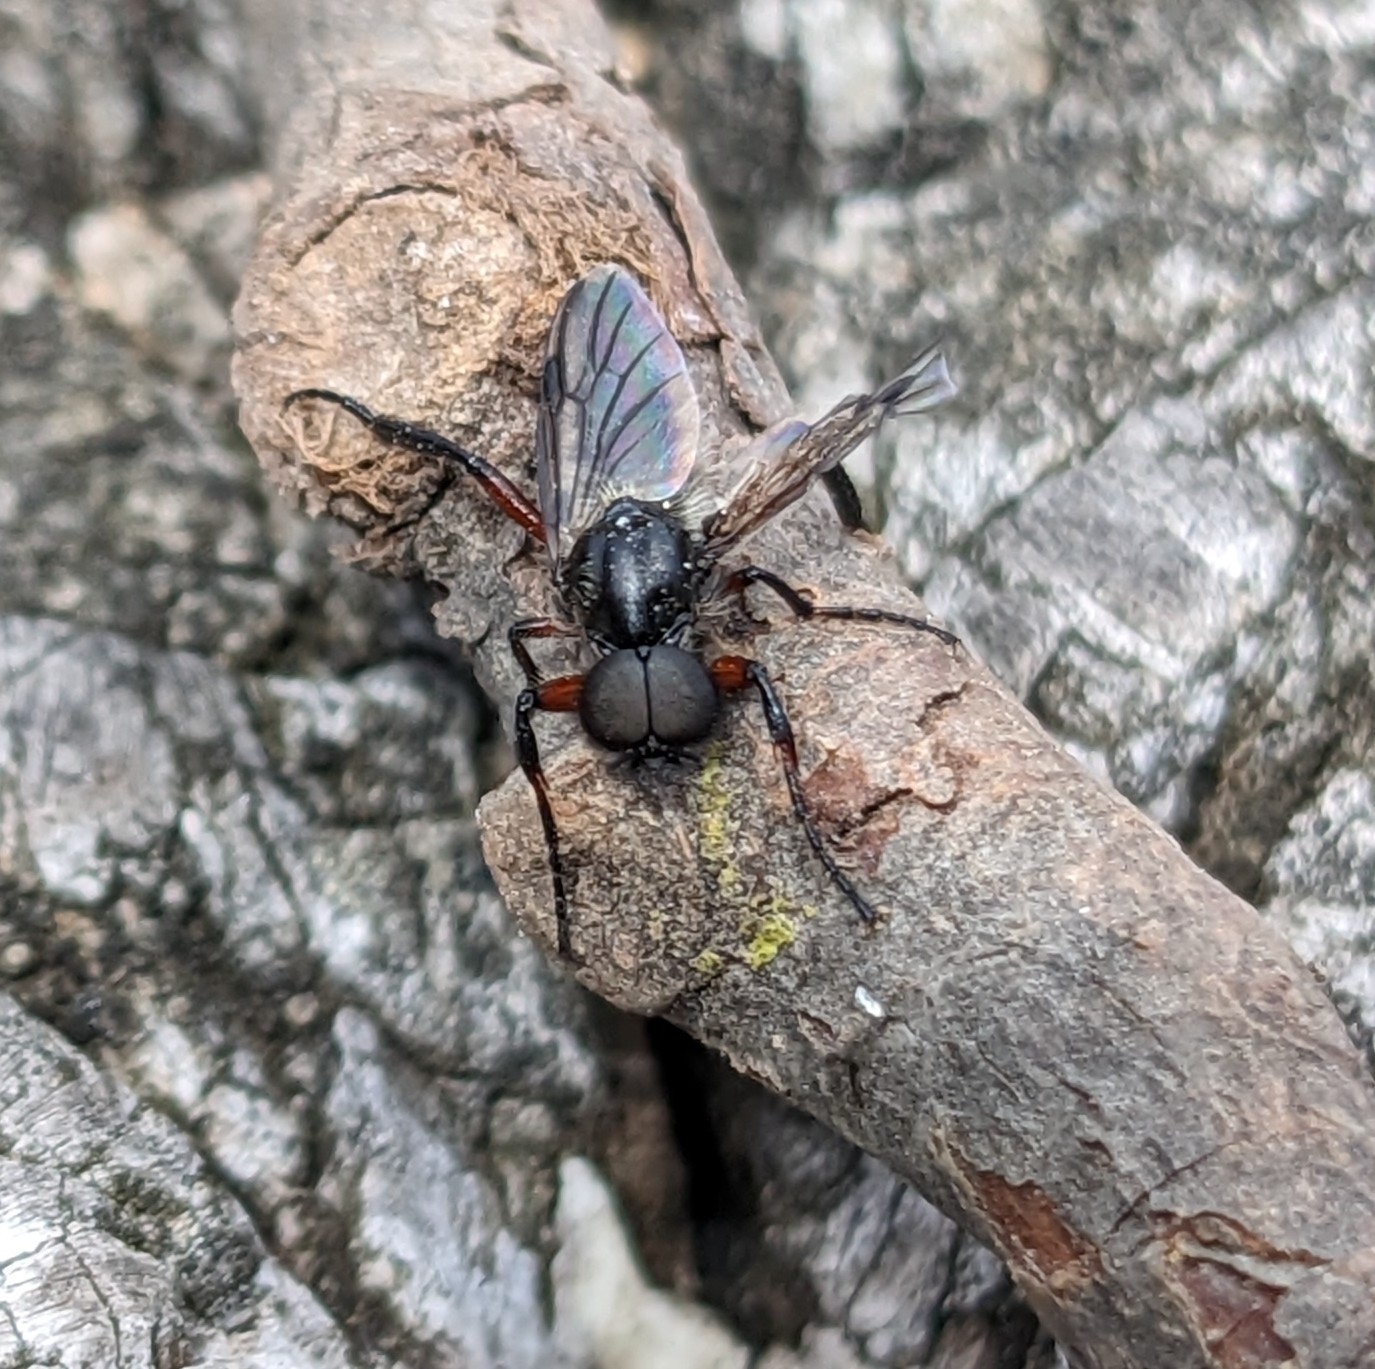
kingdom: Animalia
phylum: Arthropoda
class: Insecta
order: Diptera
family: Bibionidae
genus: Bibio
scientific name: Bibio femoratus
